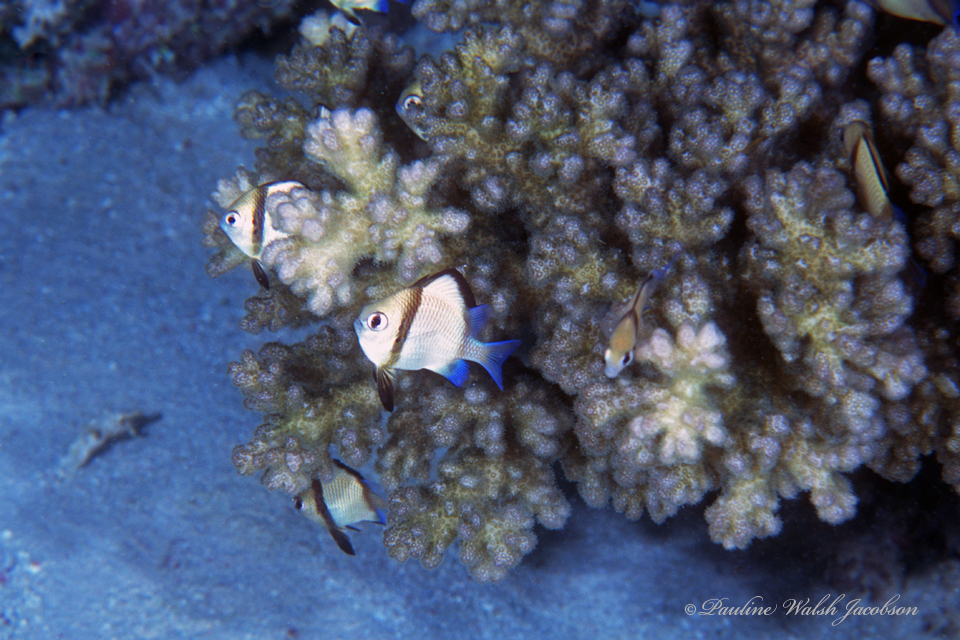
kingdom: Animalia
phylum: Chordata
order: Perciformes
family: Pomacentridae
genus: Dascyllus
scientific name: Dascyllus reticulatus
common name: Reticulated dascyllus
